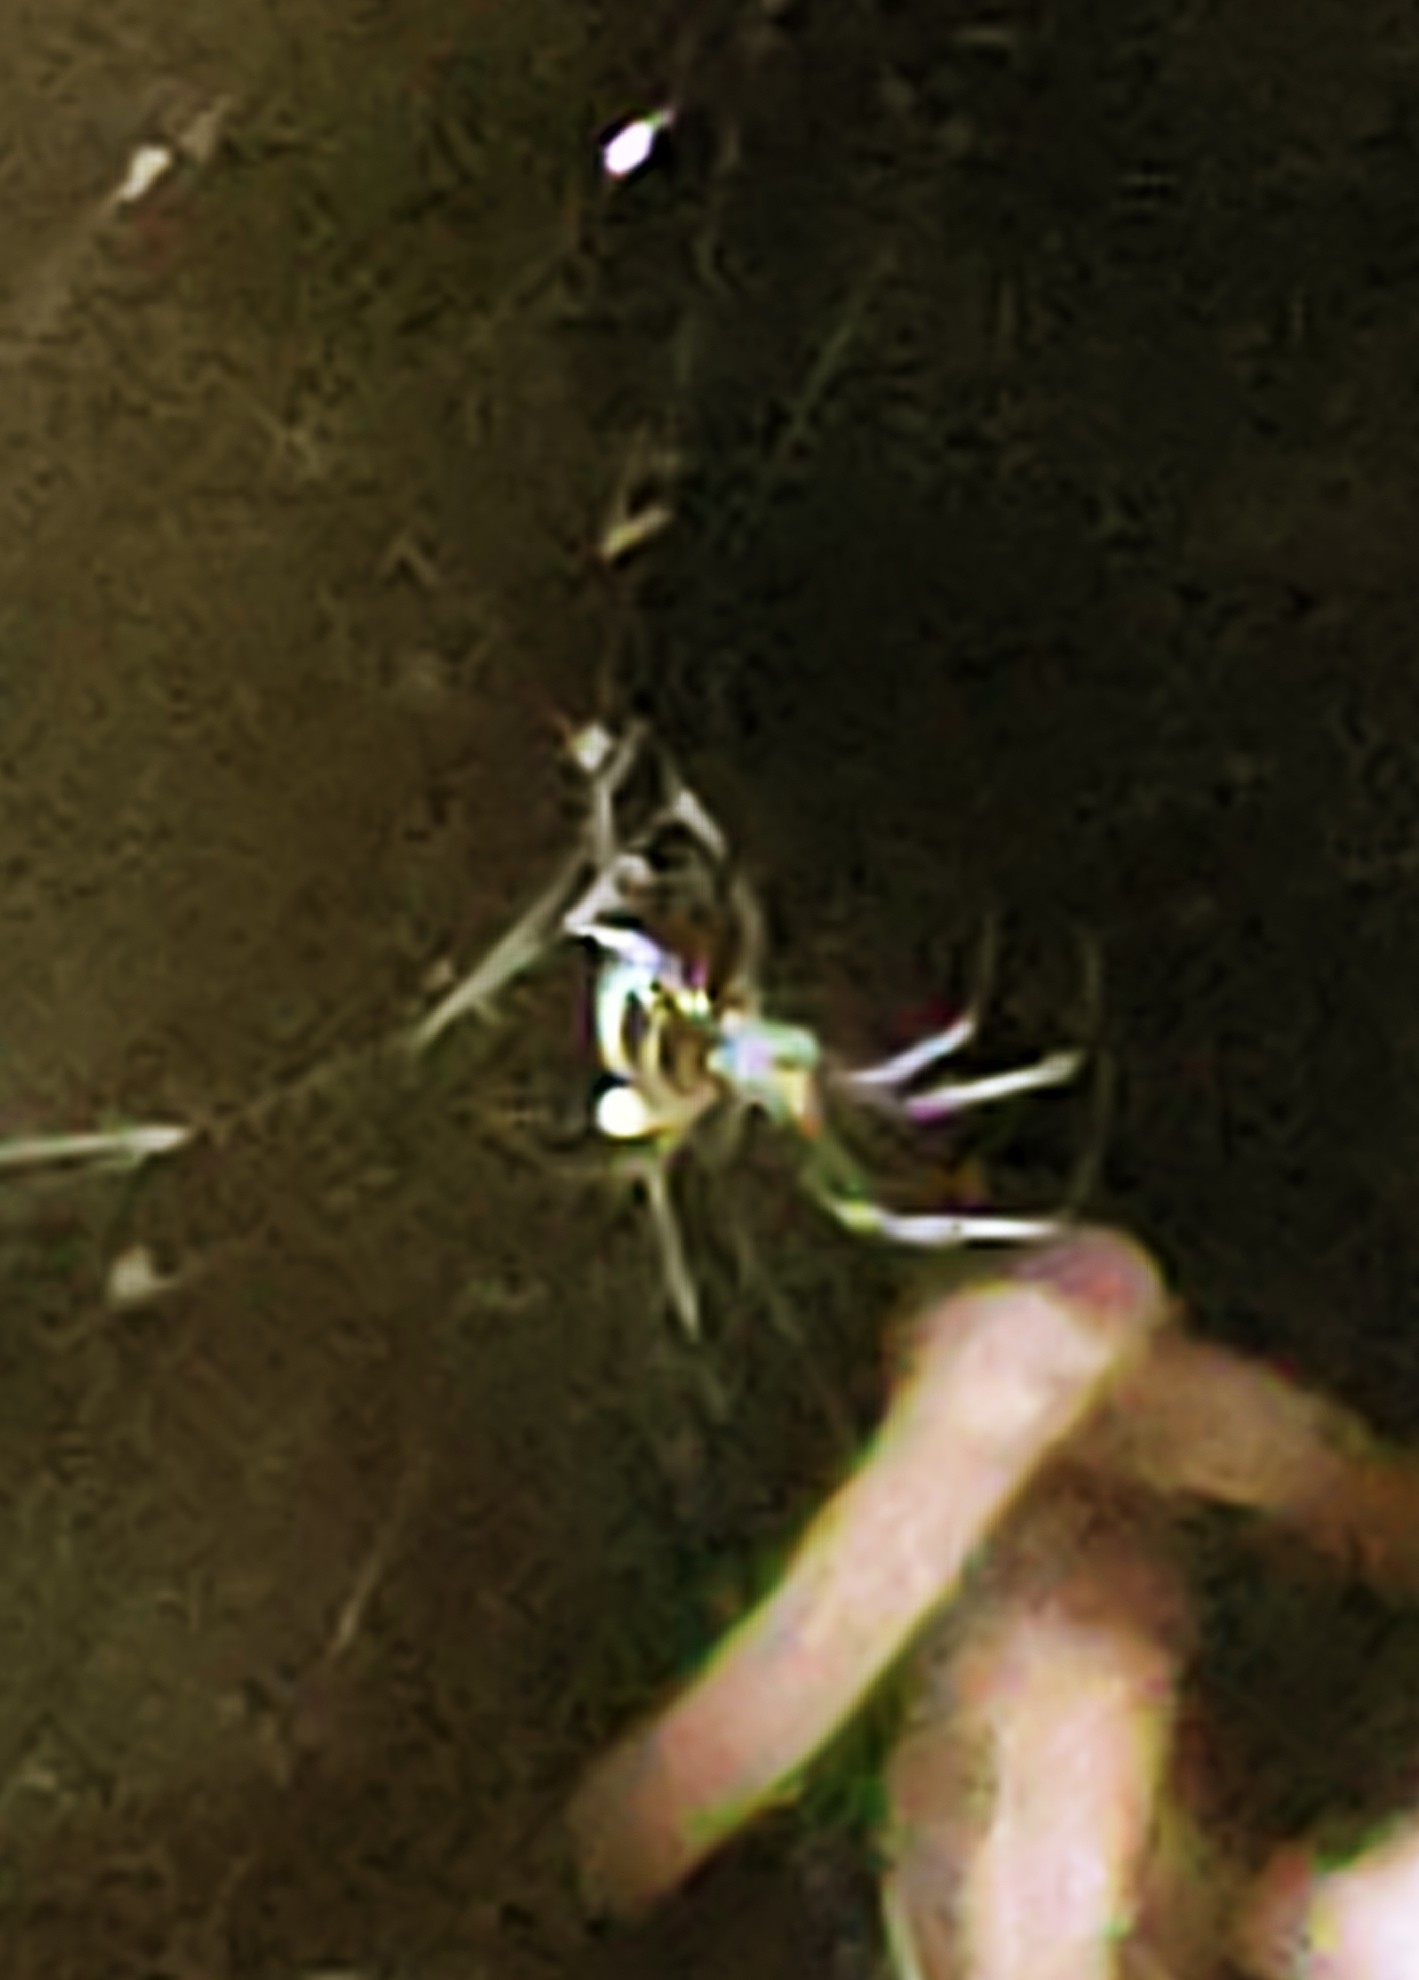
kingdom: Animalia
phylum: Arthropoda
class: Arachnida
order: Araneae
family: Tetragnathidae
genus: Leucauge
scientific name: Leucauge argyra
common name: Longjawed orb weavers
